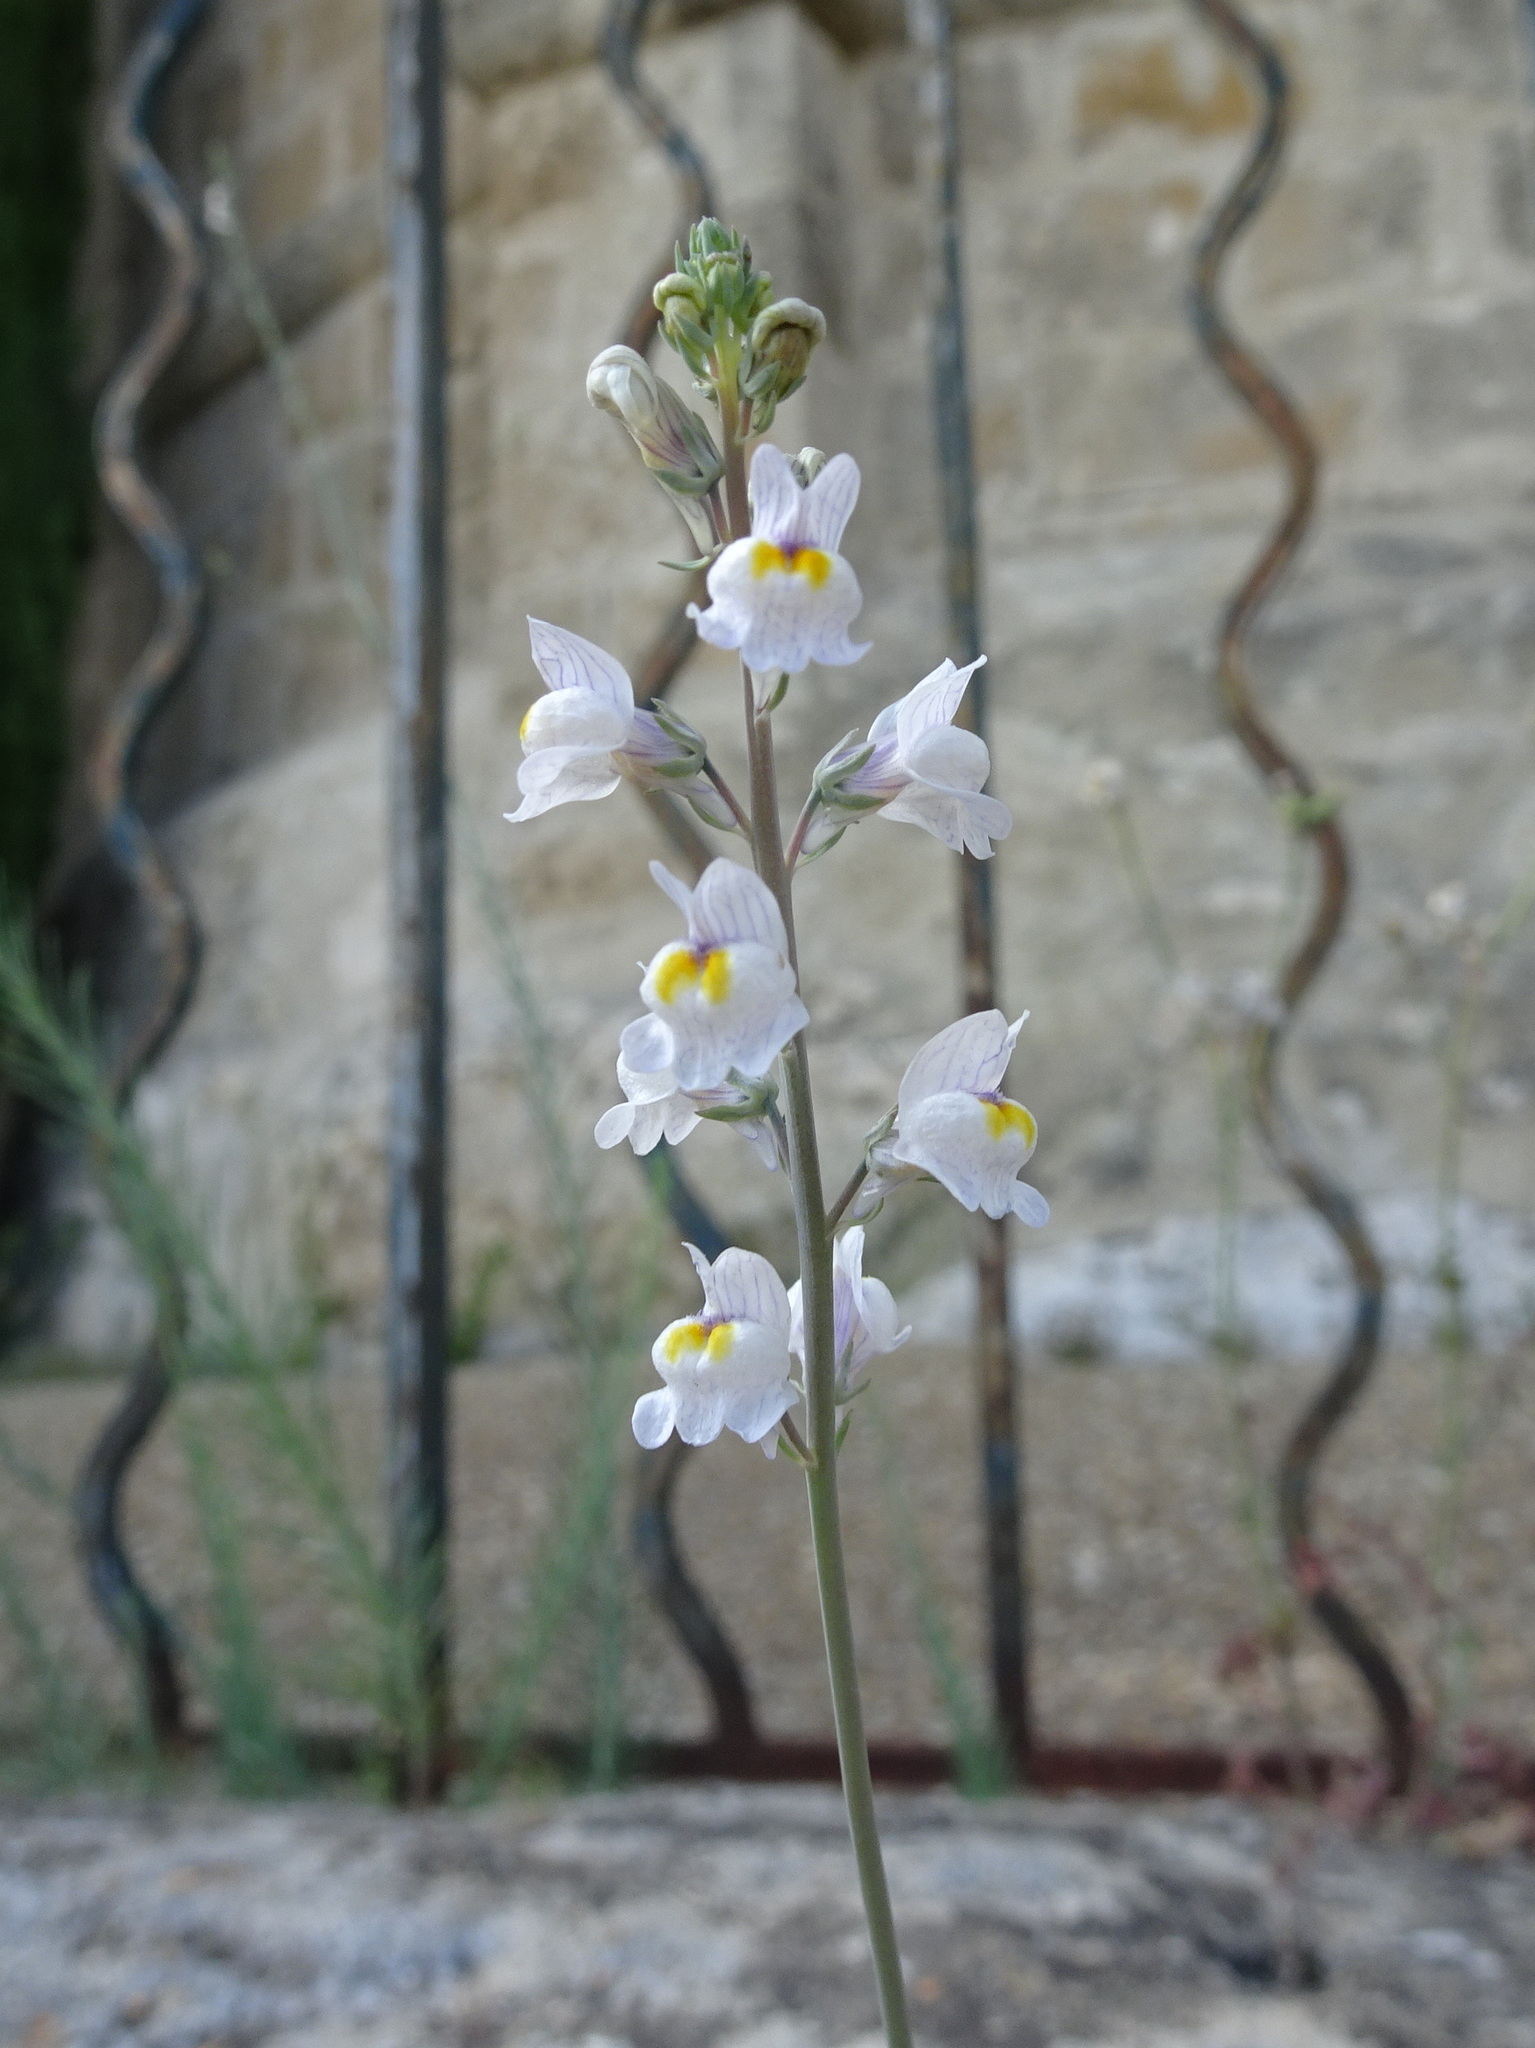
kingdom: Plantae
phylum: Tracheophyta
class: Magnoliopsida
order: Lamiales
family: Plantaginaceae
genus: Linaria
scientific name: Linaria repens
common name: Pale toadflax
